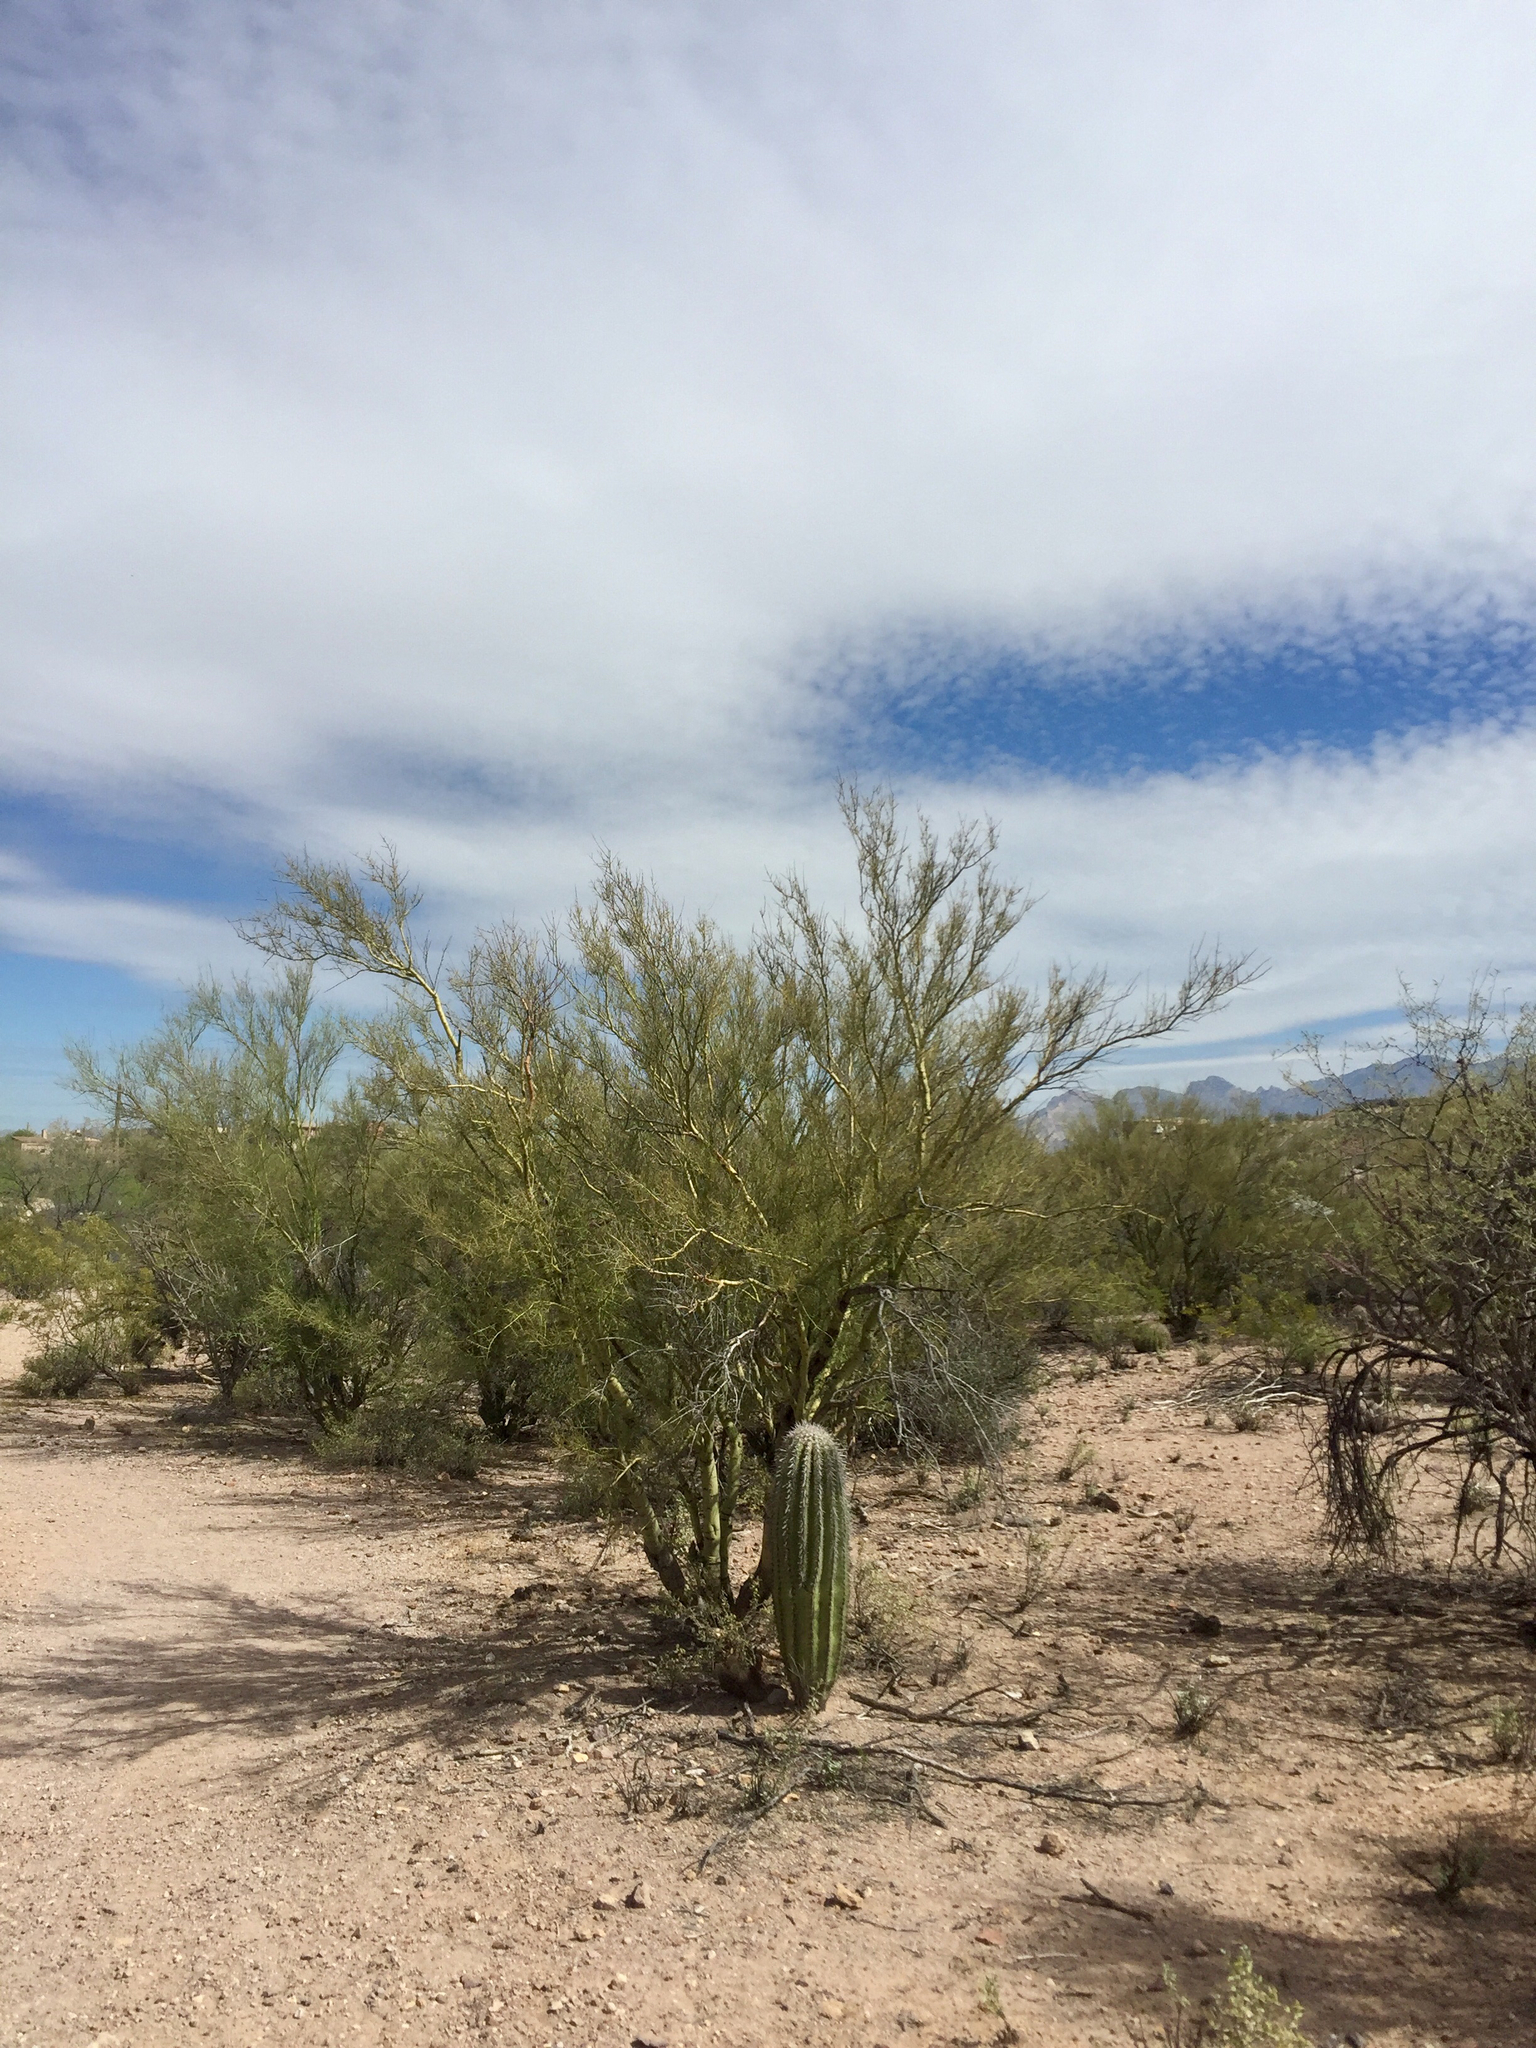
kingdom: Plantae
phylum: Tracheophyta
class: Magnoliopsida
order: Caryophyllales
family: Cactaceae
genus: Carnegiea
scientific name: Carnegiea gigantea
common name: Saguaro
